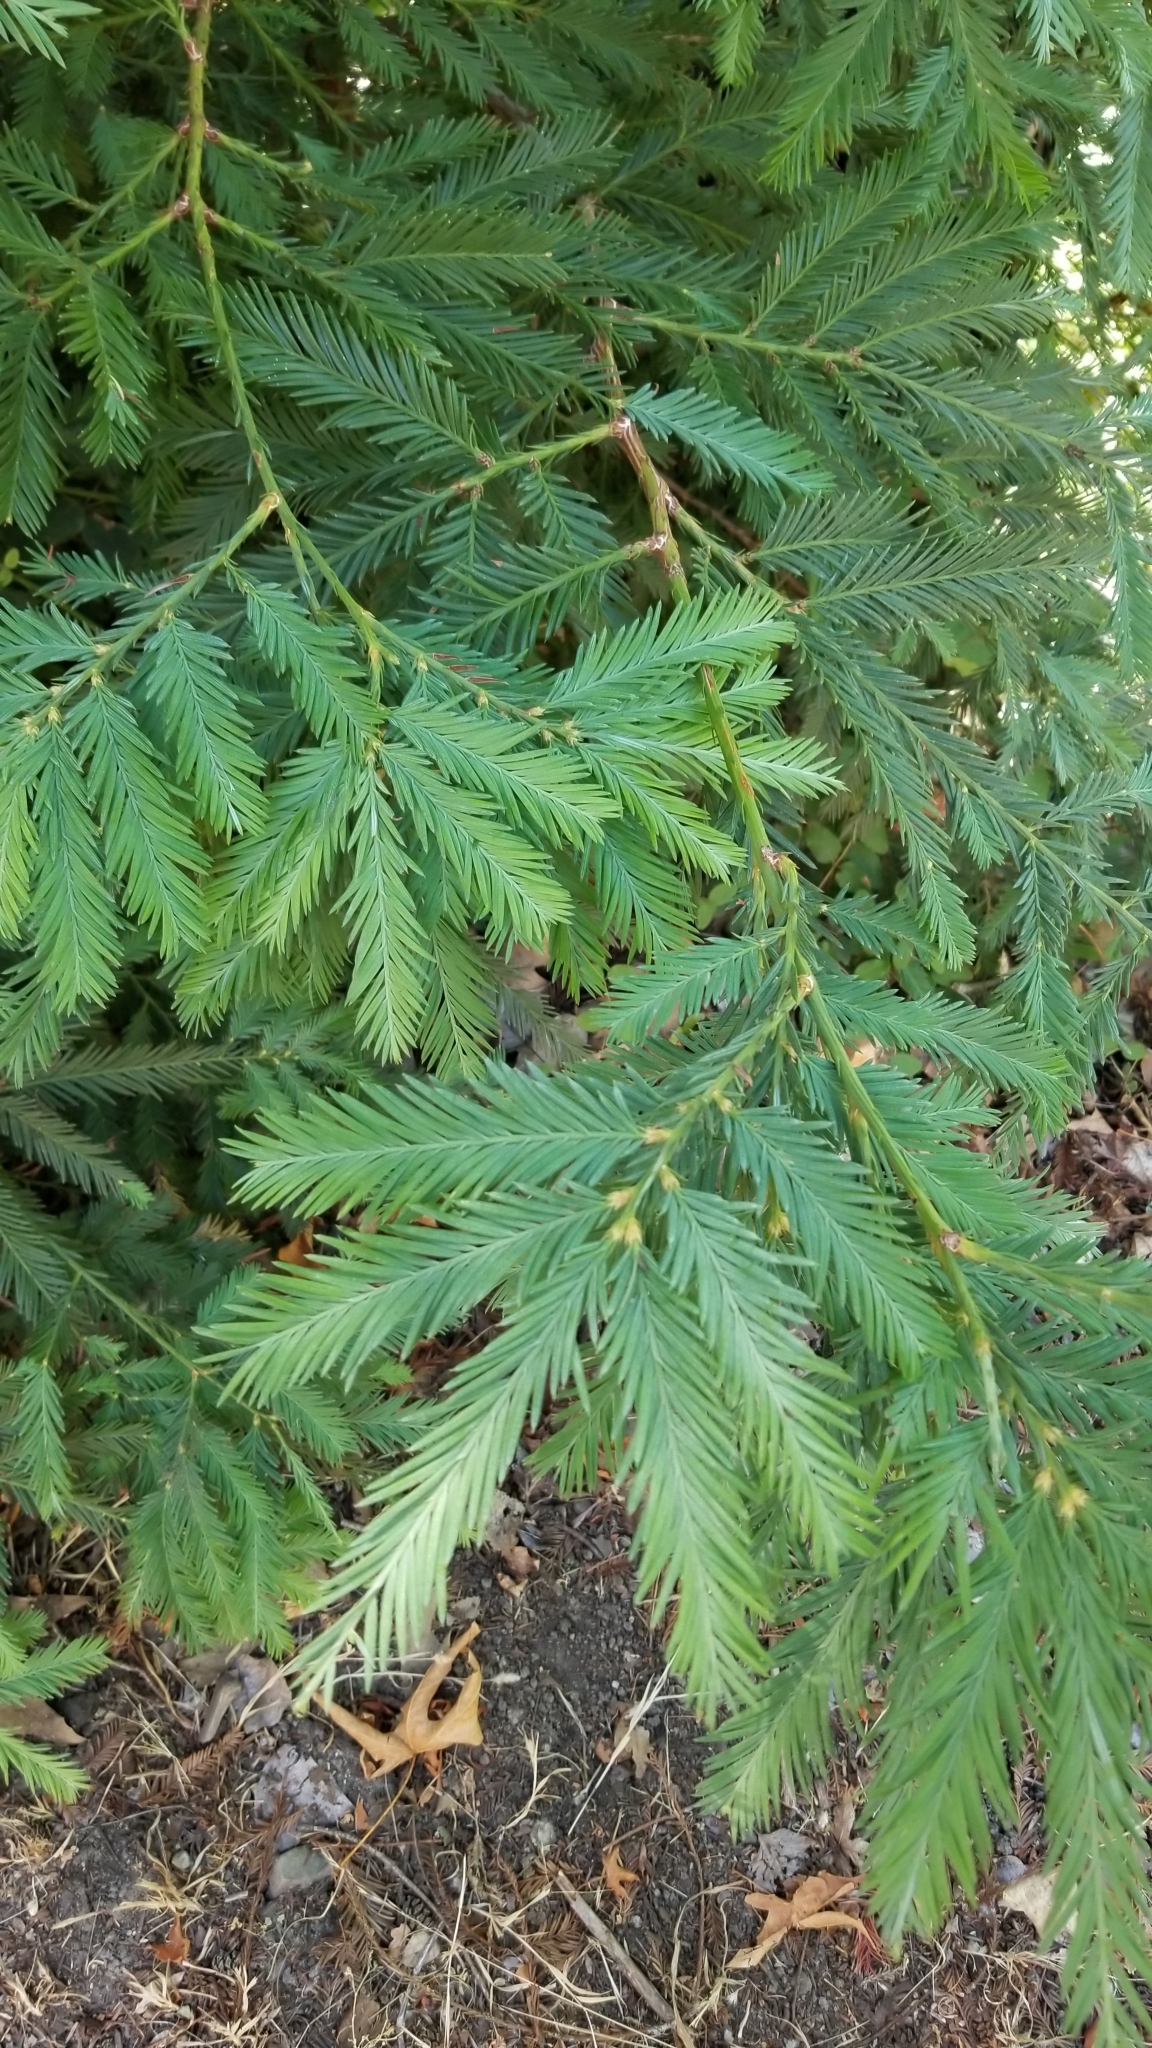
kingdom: Plantae
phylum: Tracheophyta
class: Pinopsida
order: Pinales
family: Cupressaceae
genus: Sequoia
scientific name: Sequoia sempervirens
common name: Coast redwood
